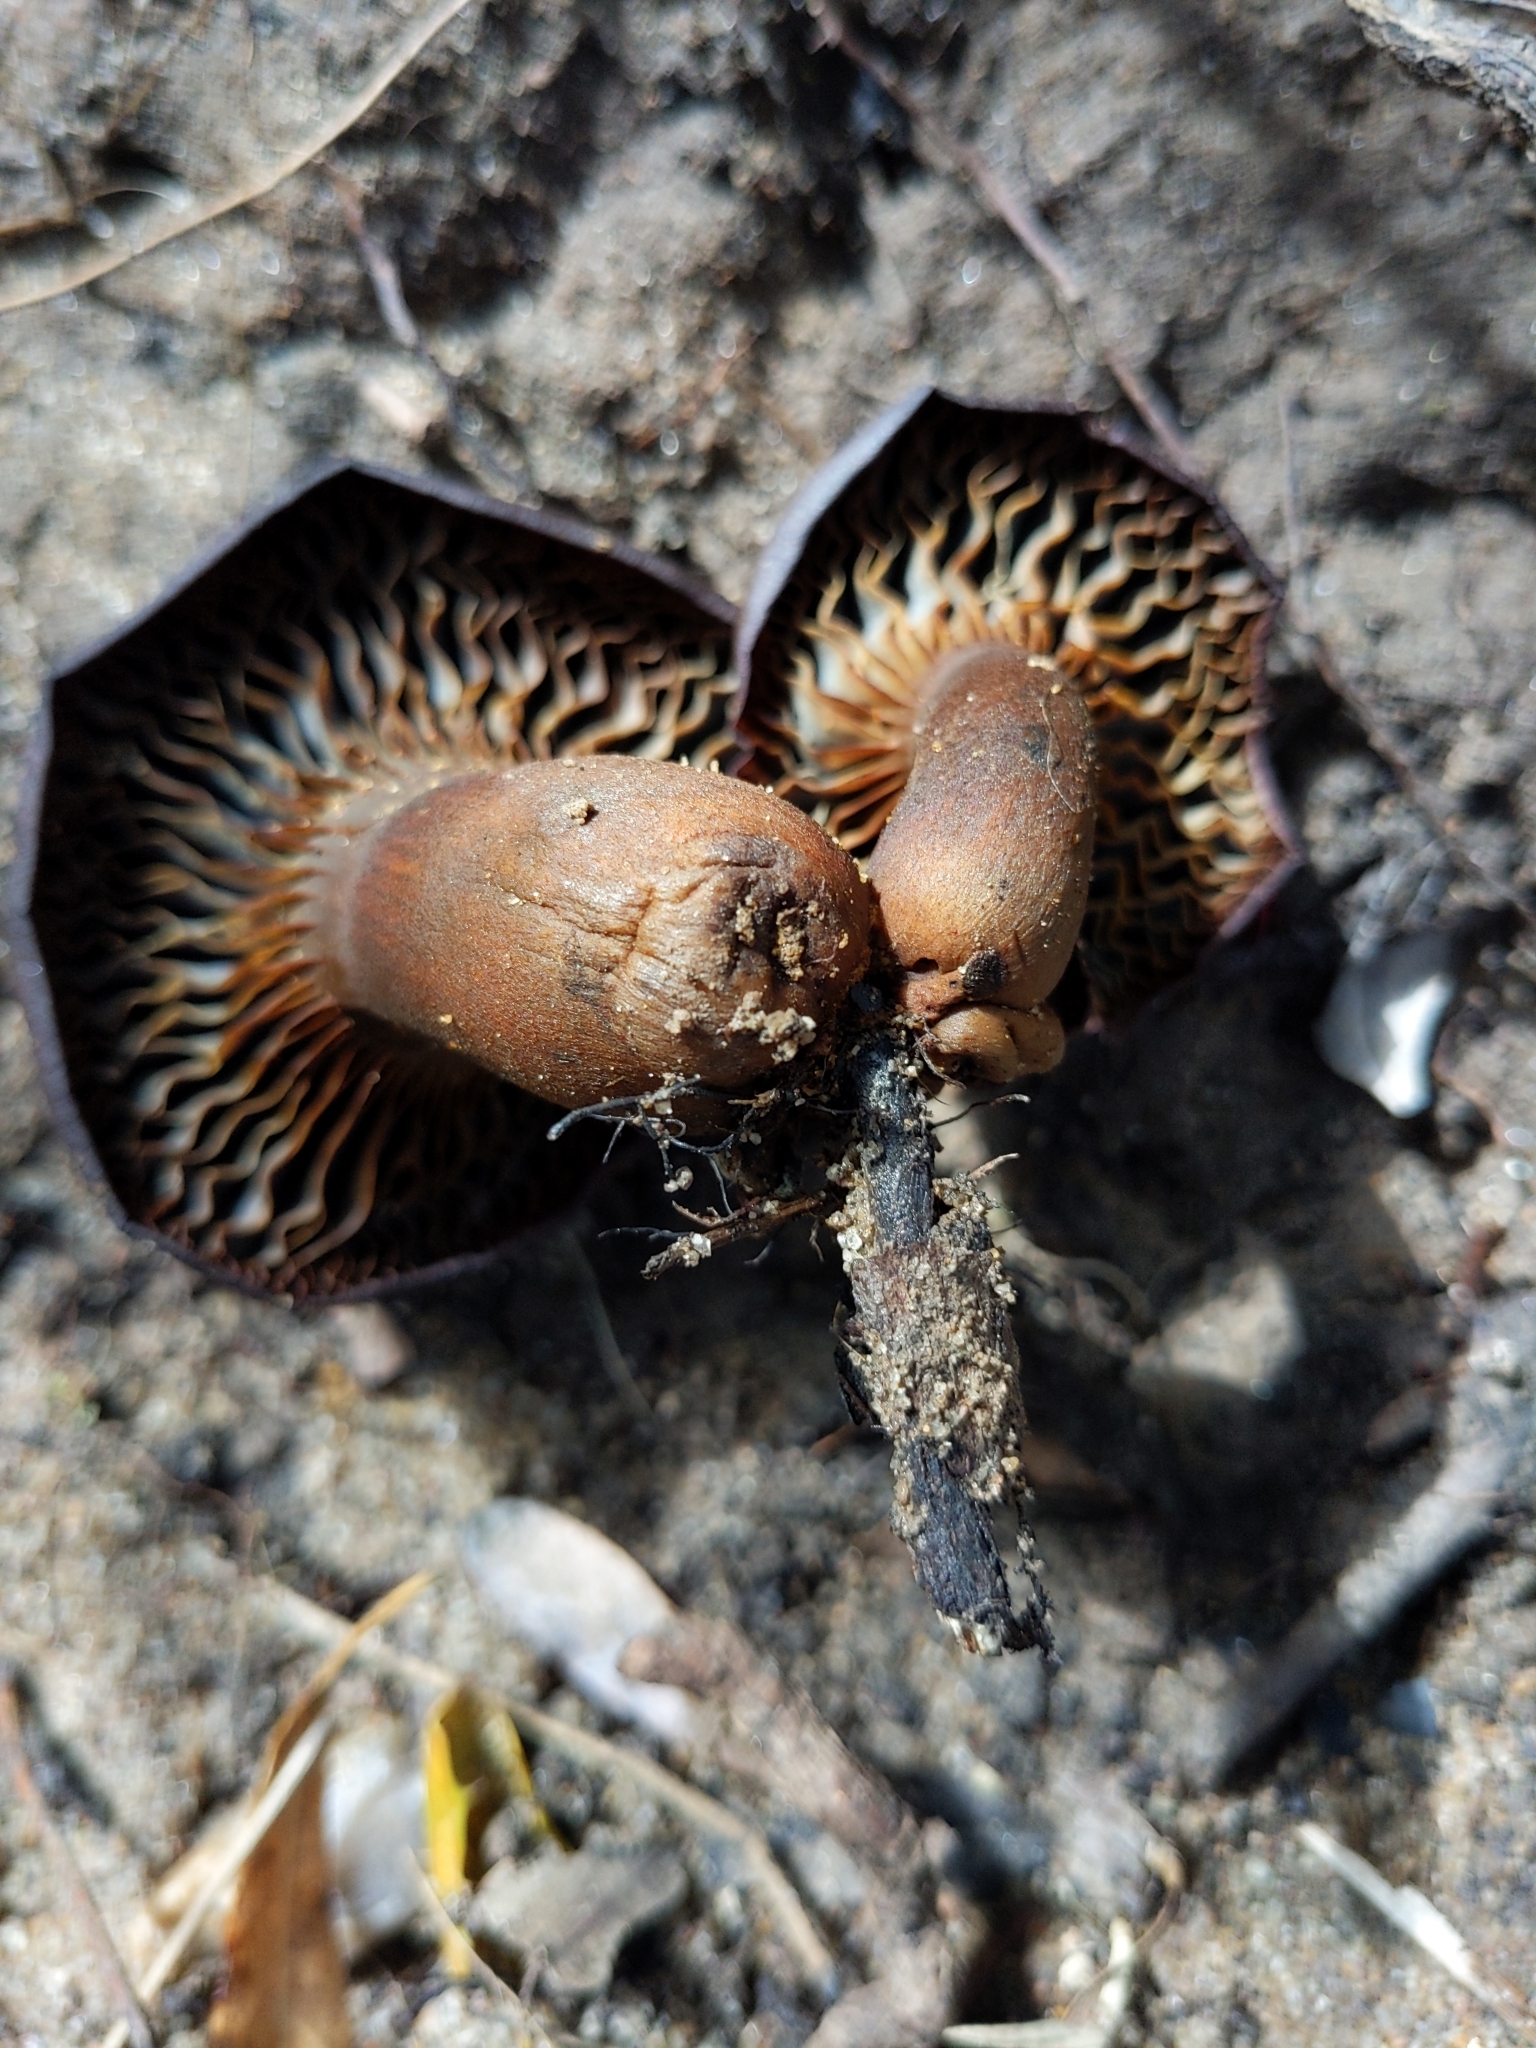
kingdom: Fungi
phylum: Basidiomycota
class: Agaricomycetes
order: Agaricales
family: Omphalotaceae
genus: Omphalotus
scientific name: Omphalotus olivascens
